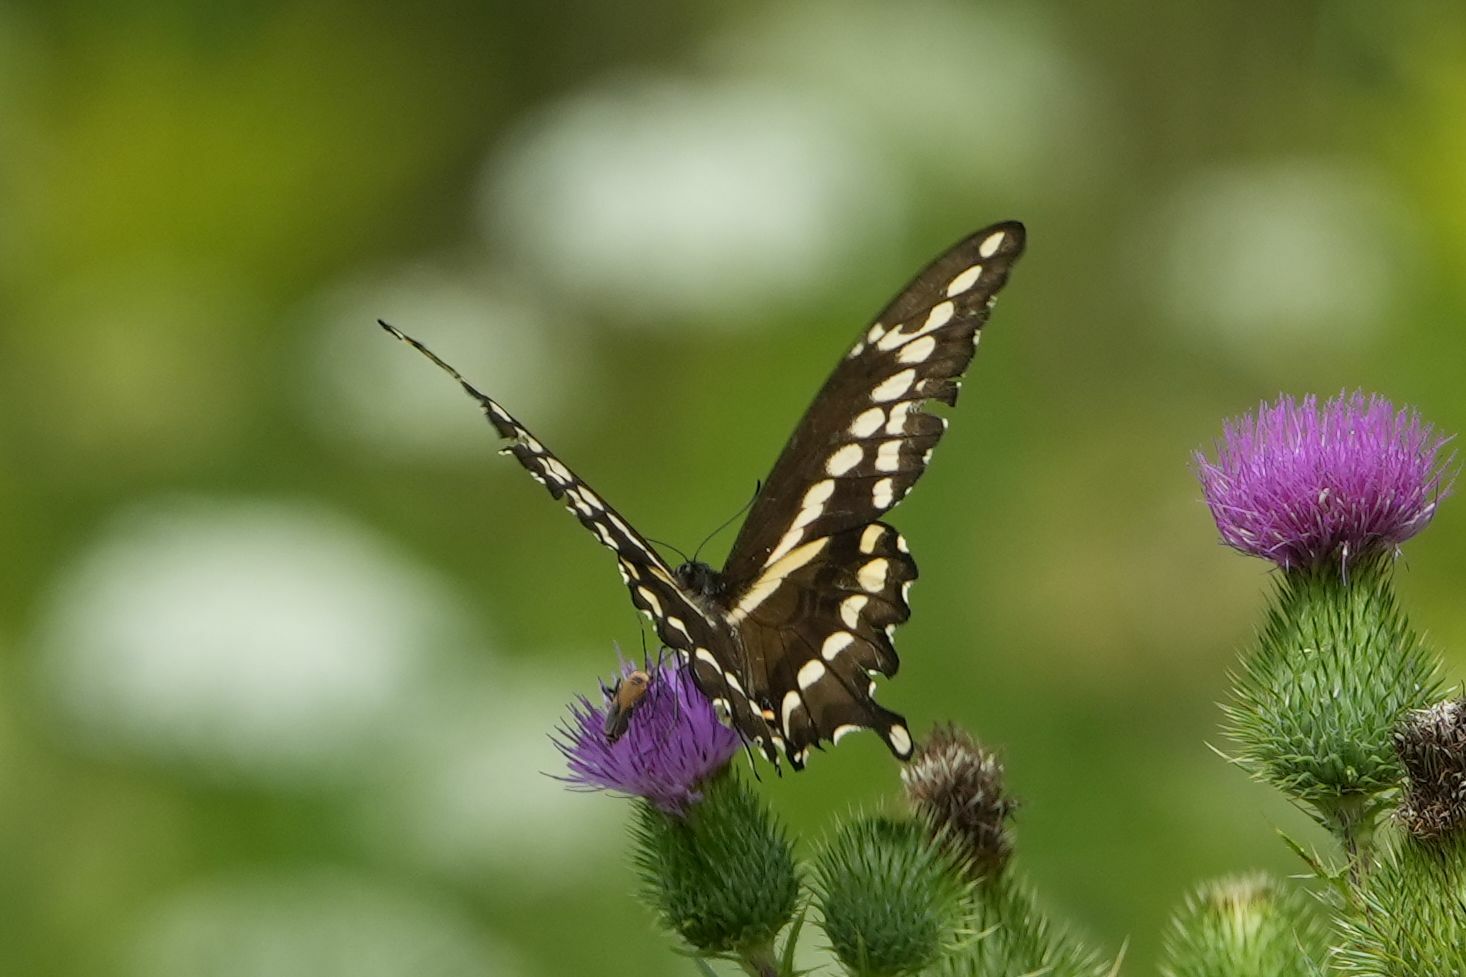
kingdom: Animalia
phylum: Arthropoda
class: Insecta
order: Lepidoptera
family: Papilionidae
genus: Papilio
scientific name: Papilio cresphontes
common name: Giant swallowtail
